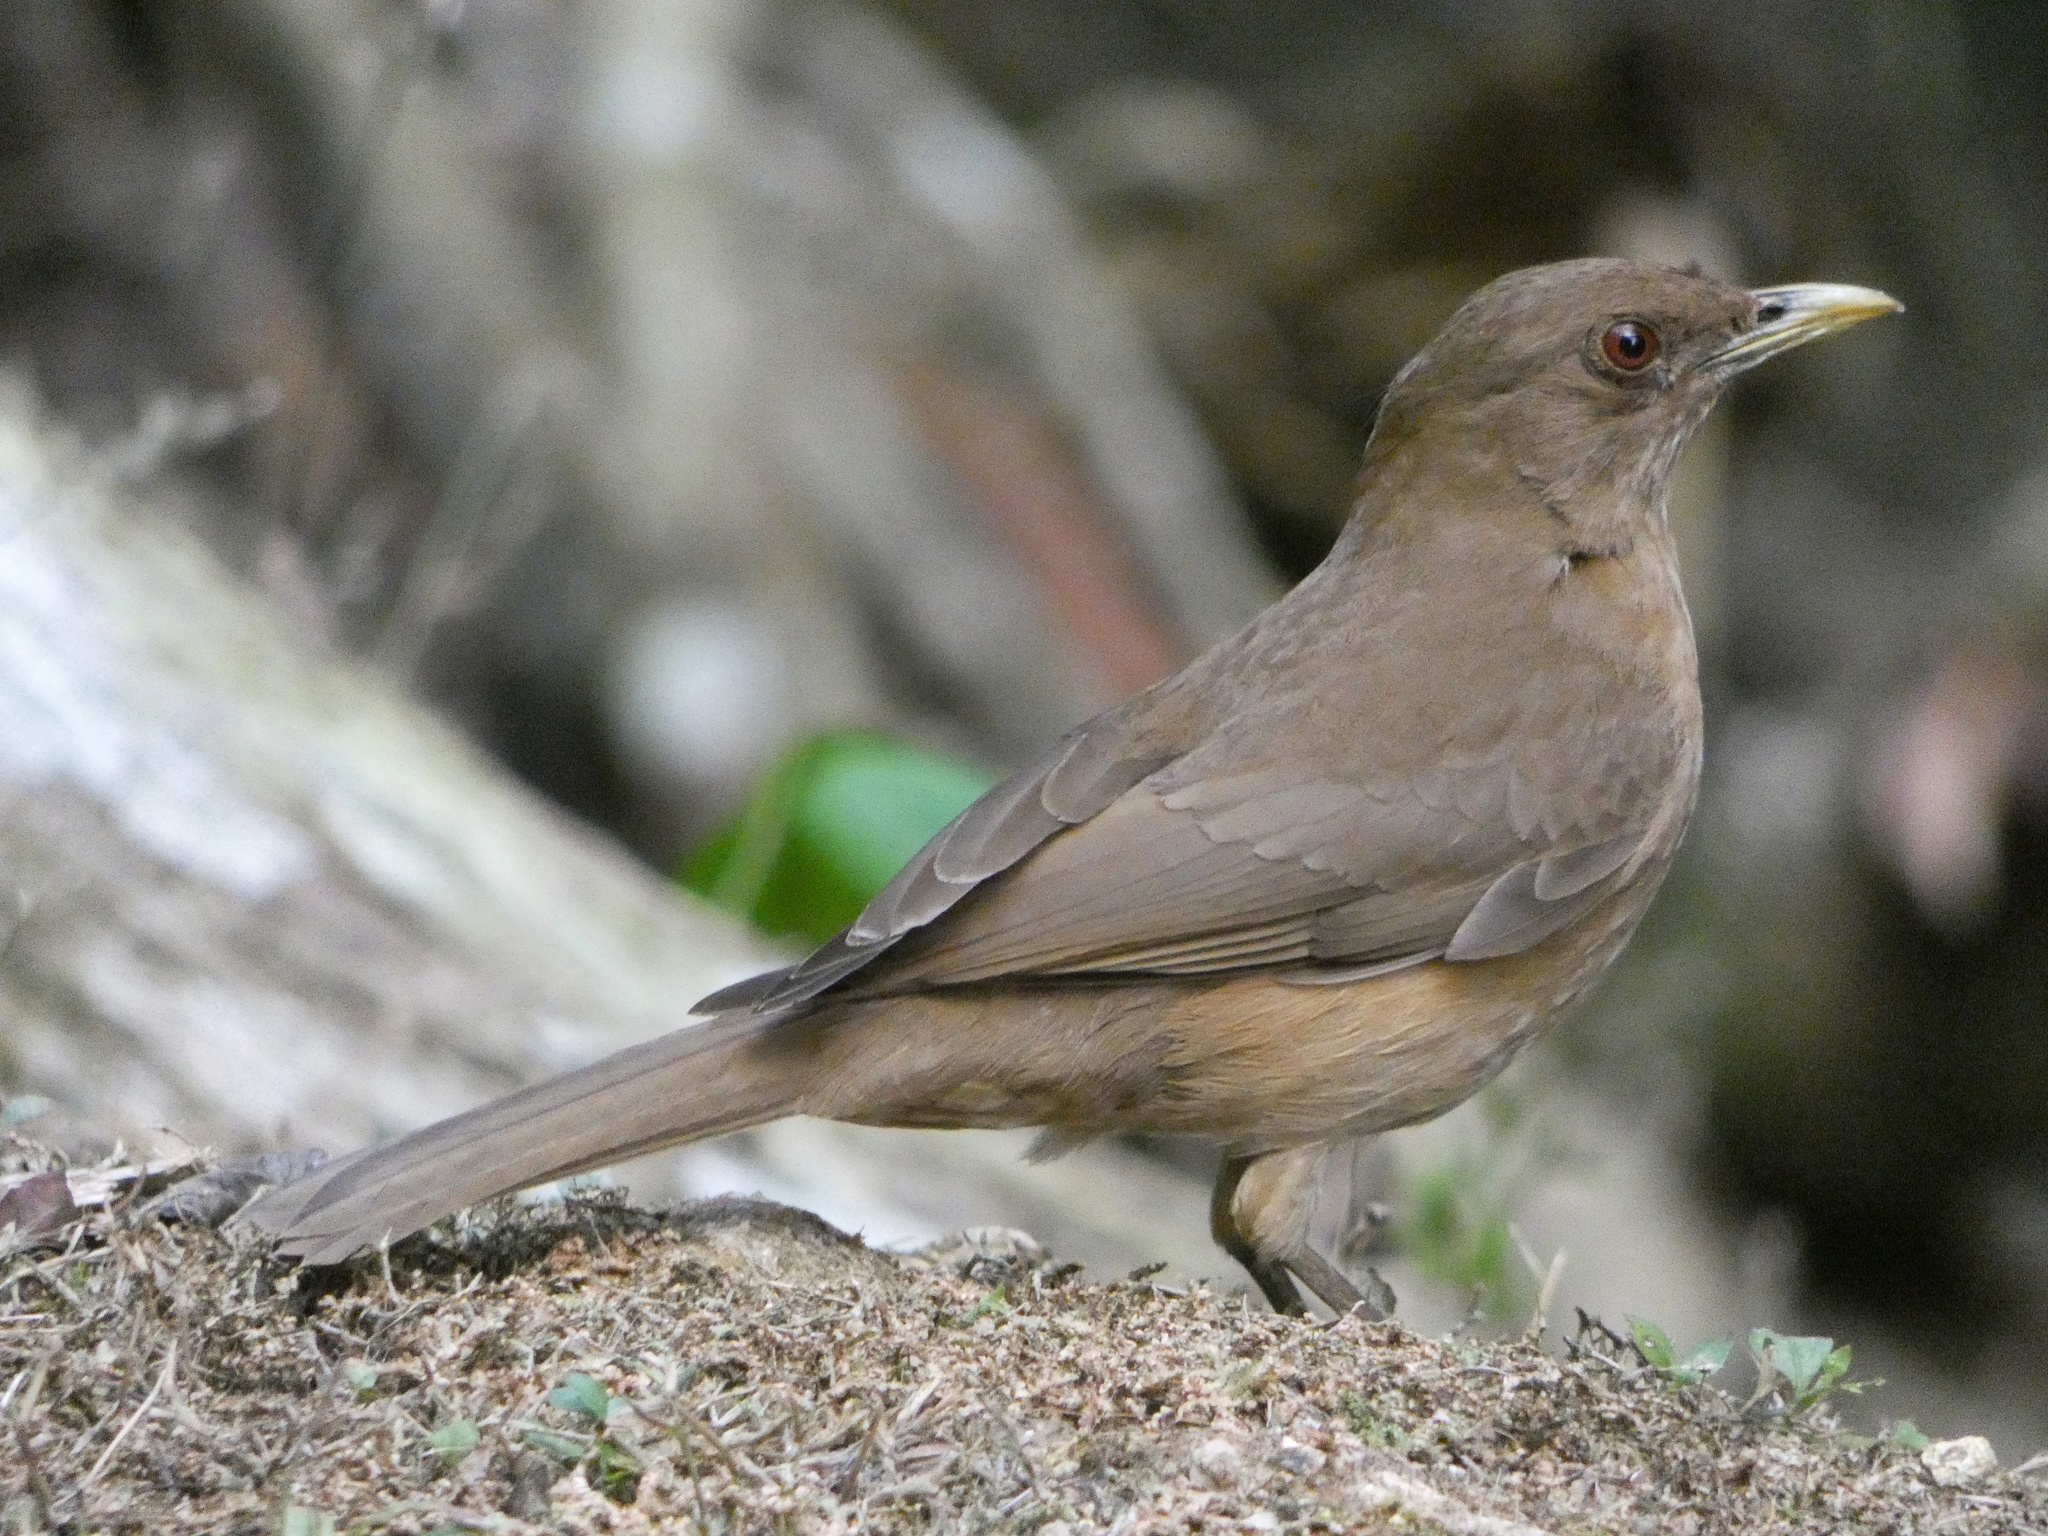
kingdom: Animalia
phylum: Chordata
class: Aves
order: Passeriformes
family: Turdidae
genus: Turdus
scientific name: Turdus grayi
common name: Clay-colored thrush
